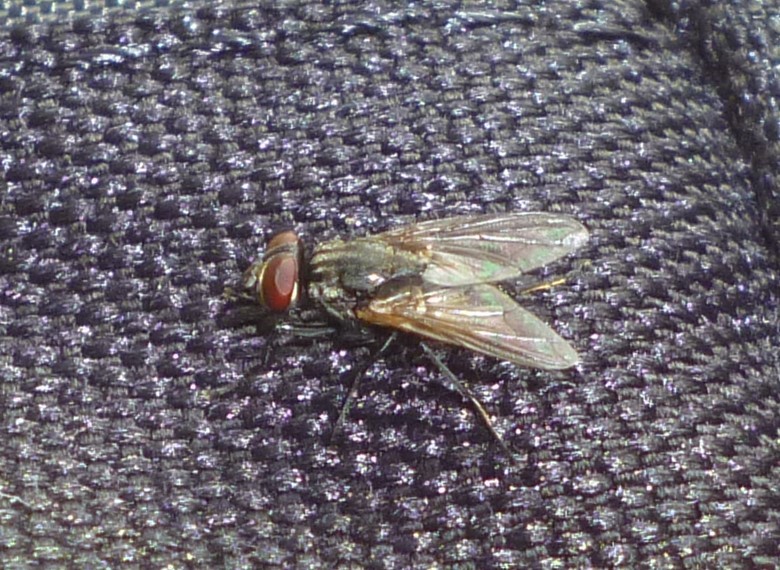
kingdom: Animalia
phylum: Arthropoda
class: Insecta
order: Diptera
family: Muscidae
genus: Musca
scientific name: Musca domestica
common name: House fly
